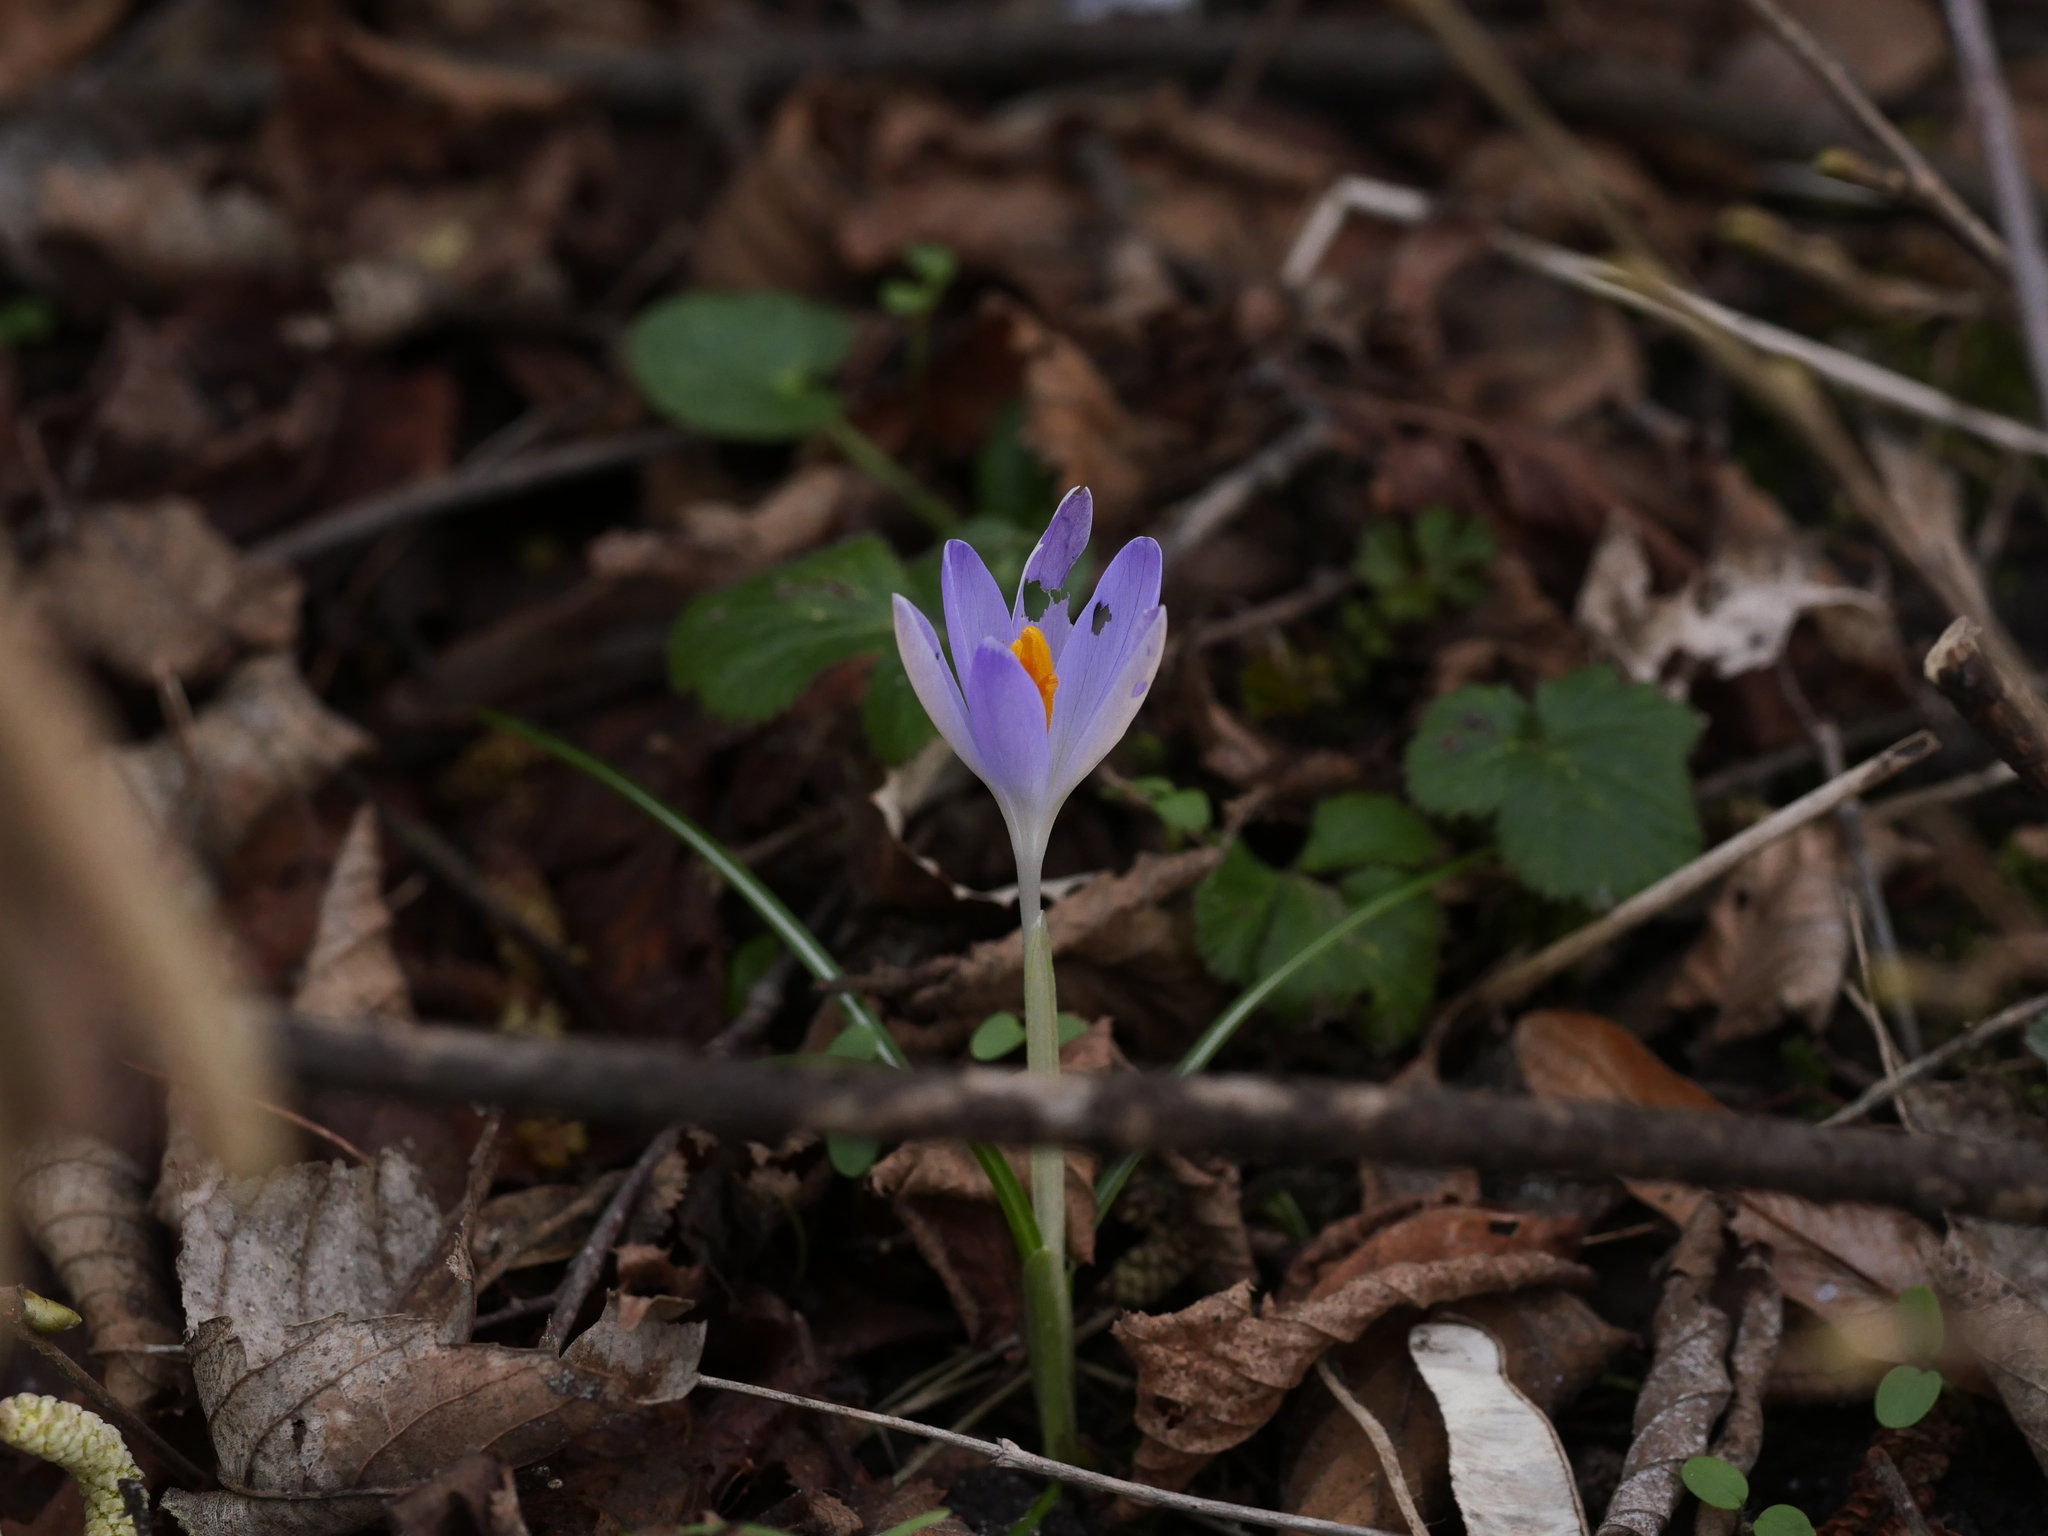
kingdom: Plantae
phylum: Tracheophyta
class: Liliopsida
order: Asparagales
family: Iridaceae
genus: Crocus
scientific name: Crocus tommasinianus
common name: Early crocus
